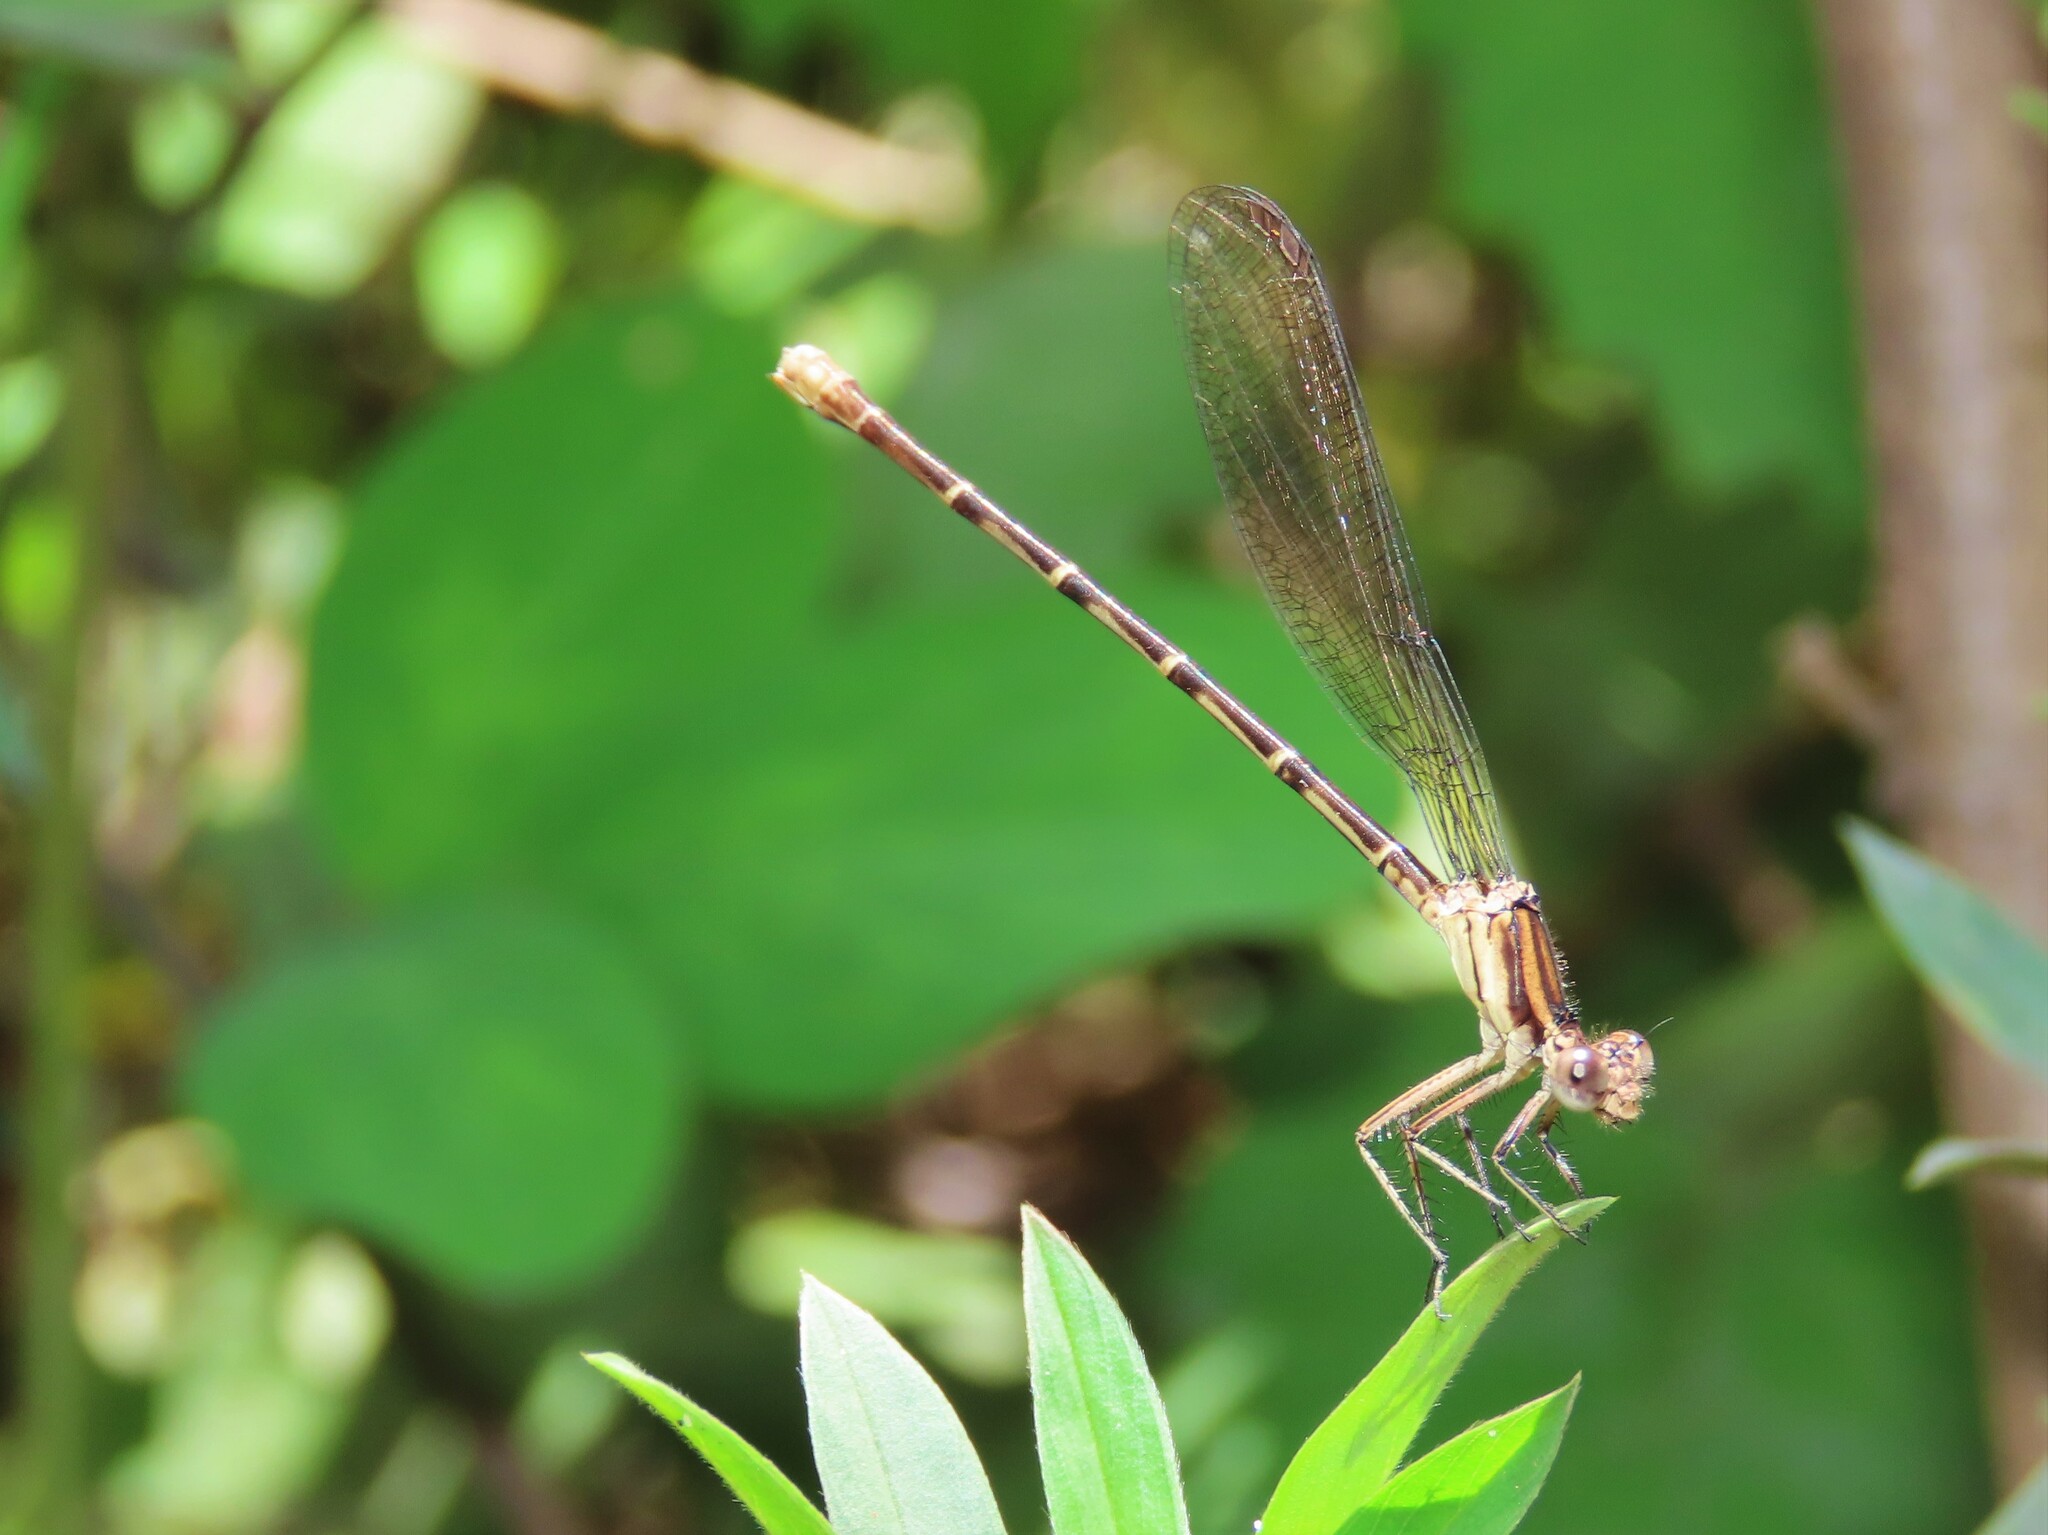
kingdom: Animalia
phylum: Arthropoda
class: Insecta
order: Odonata
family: Coenagrionidae
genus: Argia
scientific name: Argia sedula
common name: Blue-ringed dancer
